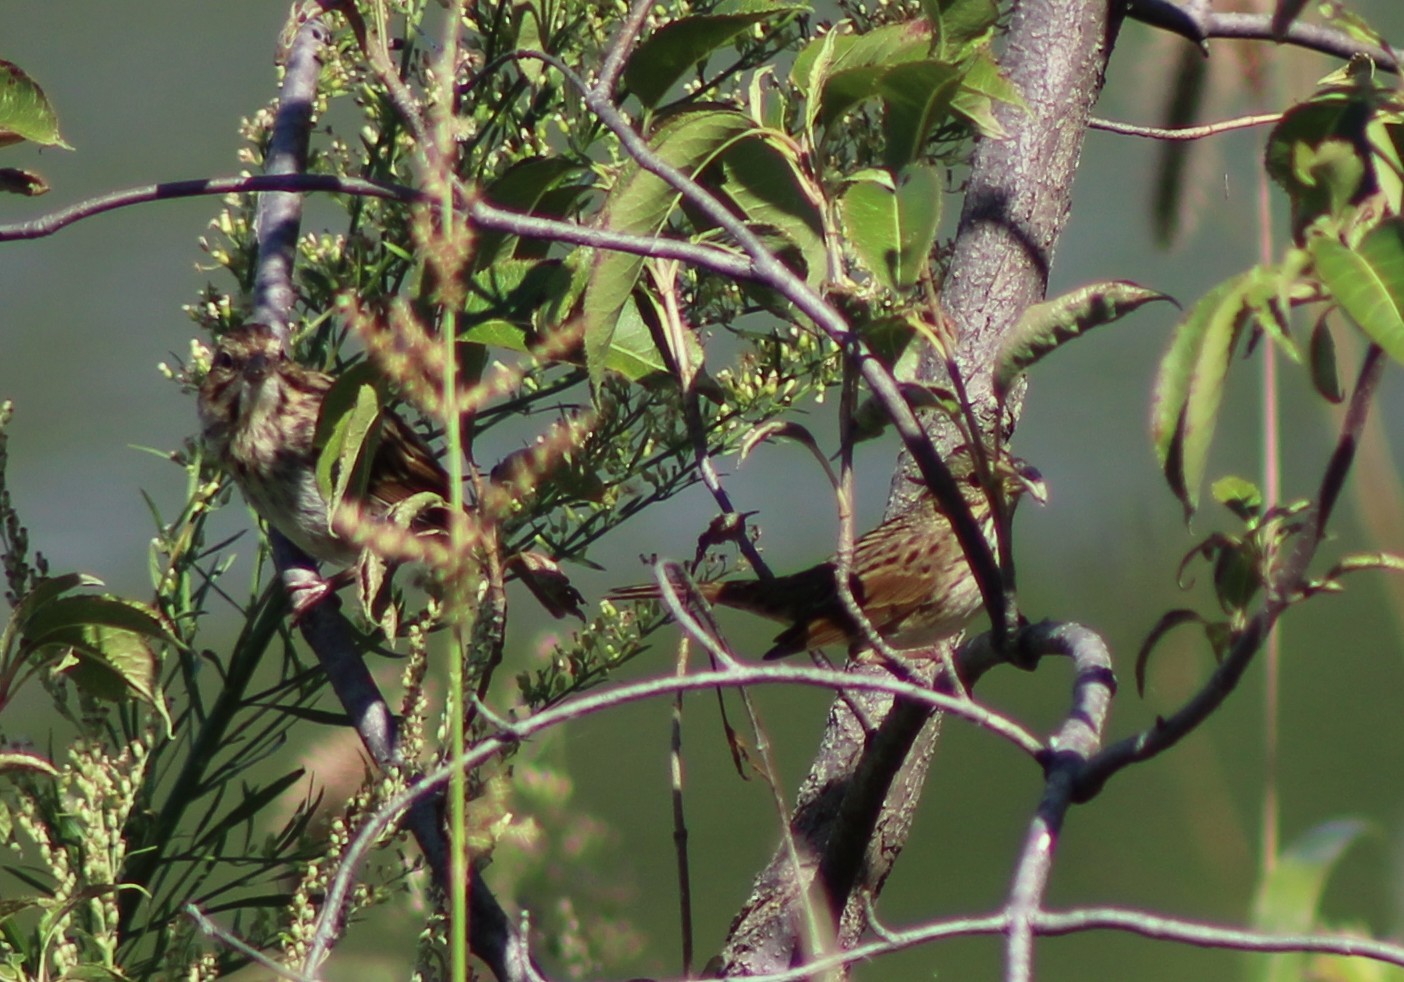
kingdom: Animalia
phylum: Chordata
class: Aves
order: Passeriformes
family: Passerellidae
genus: Melospiza
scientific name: Melospiza lincolnii
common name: Lincoln's sparrow
